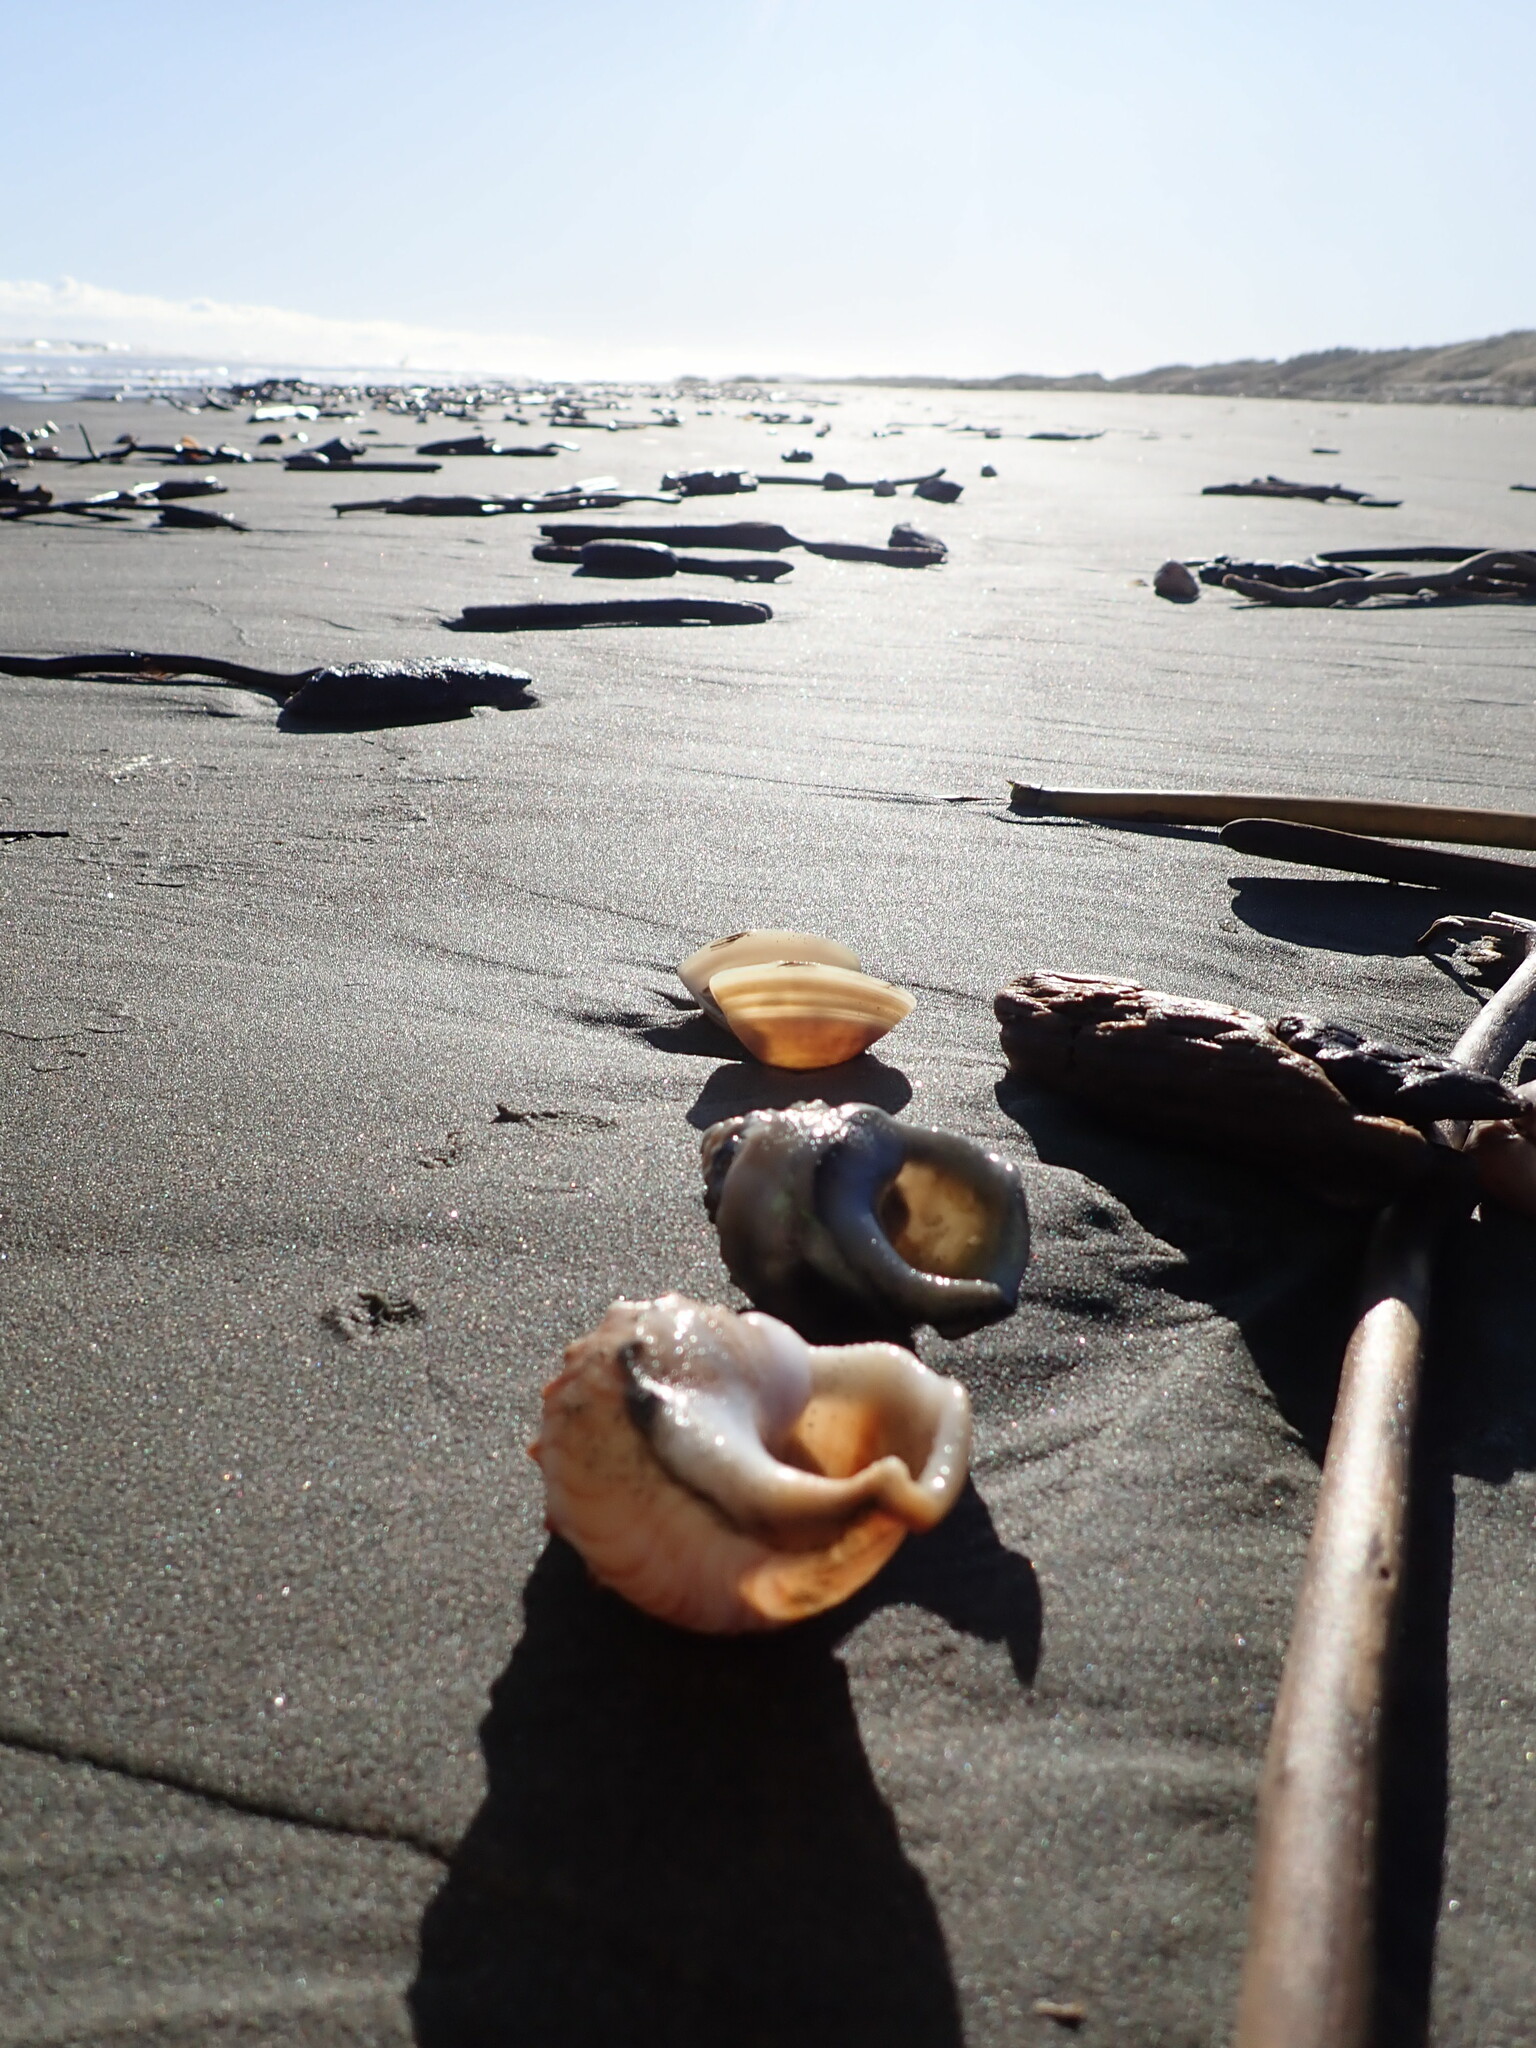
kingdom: Animalia
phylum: Mollusca
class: Gastropoda
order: Littorinimorpha
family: Struthiolariidae
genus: Struthiolaria
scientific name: Struthiolaria papulosa
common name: Large ostrich foot
